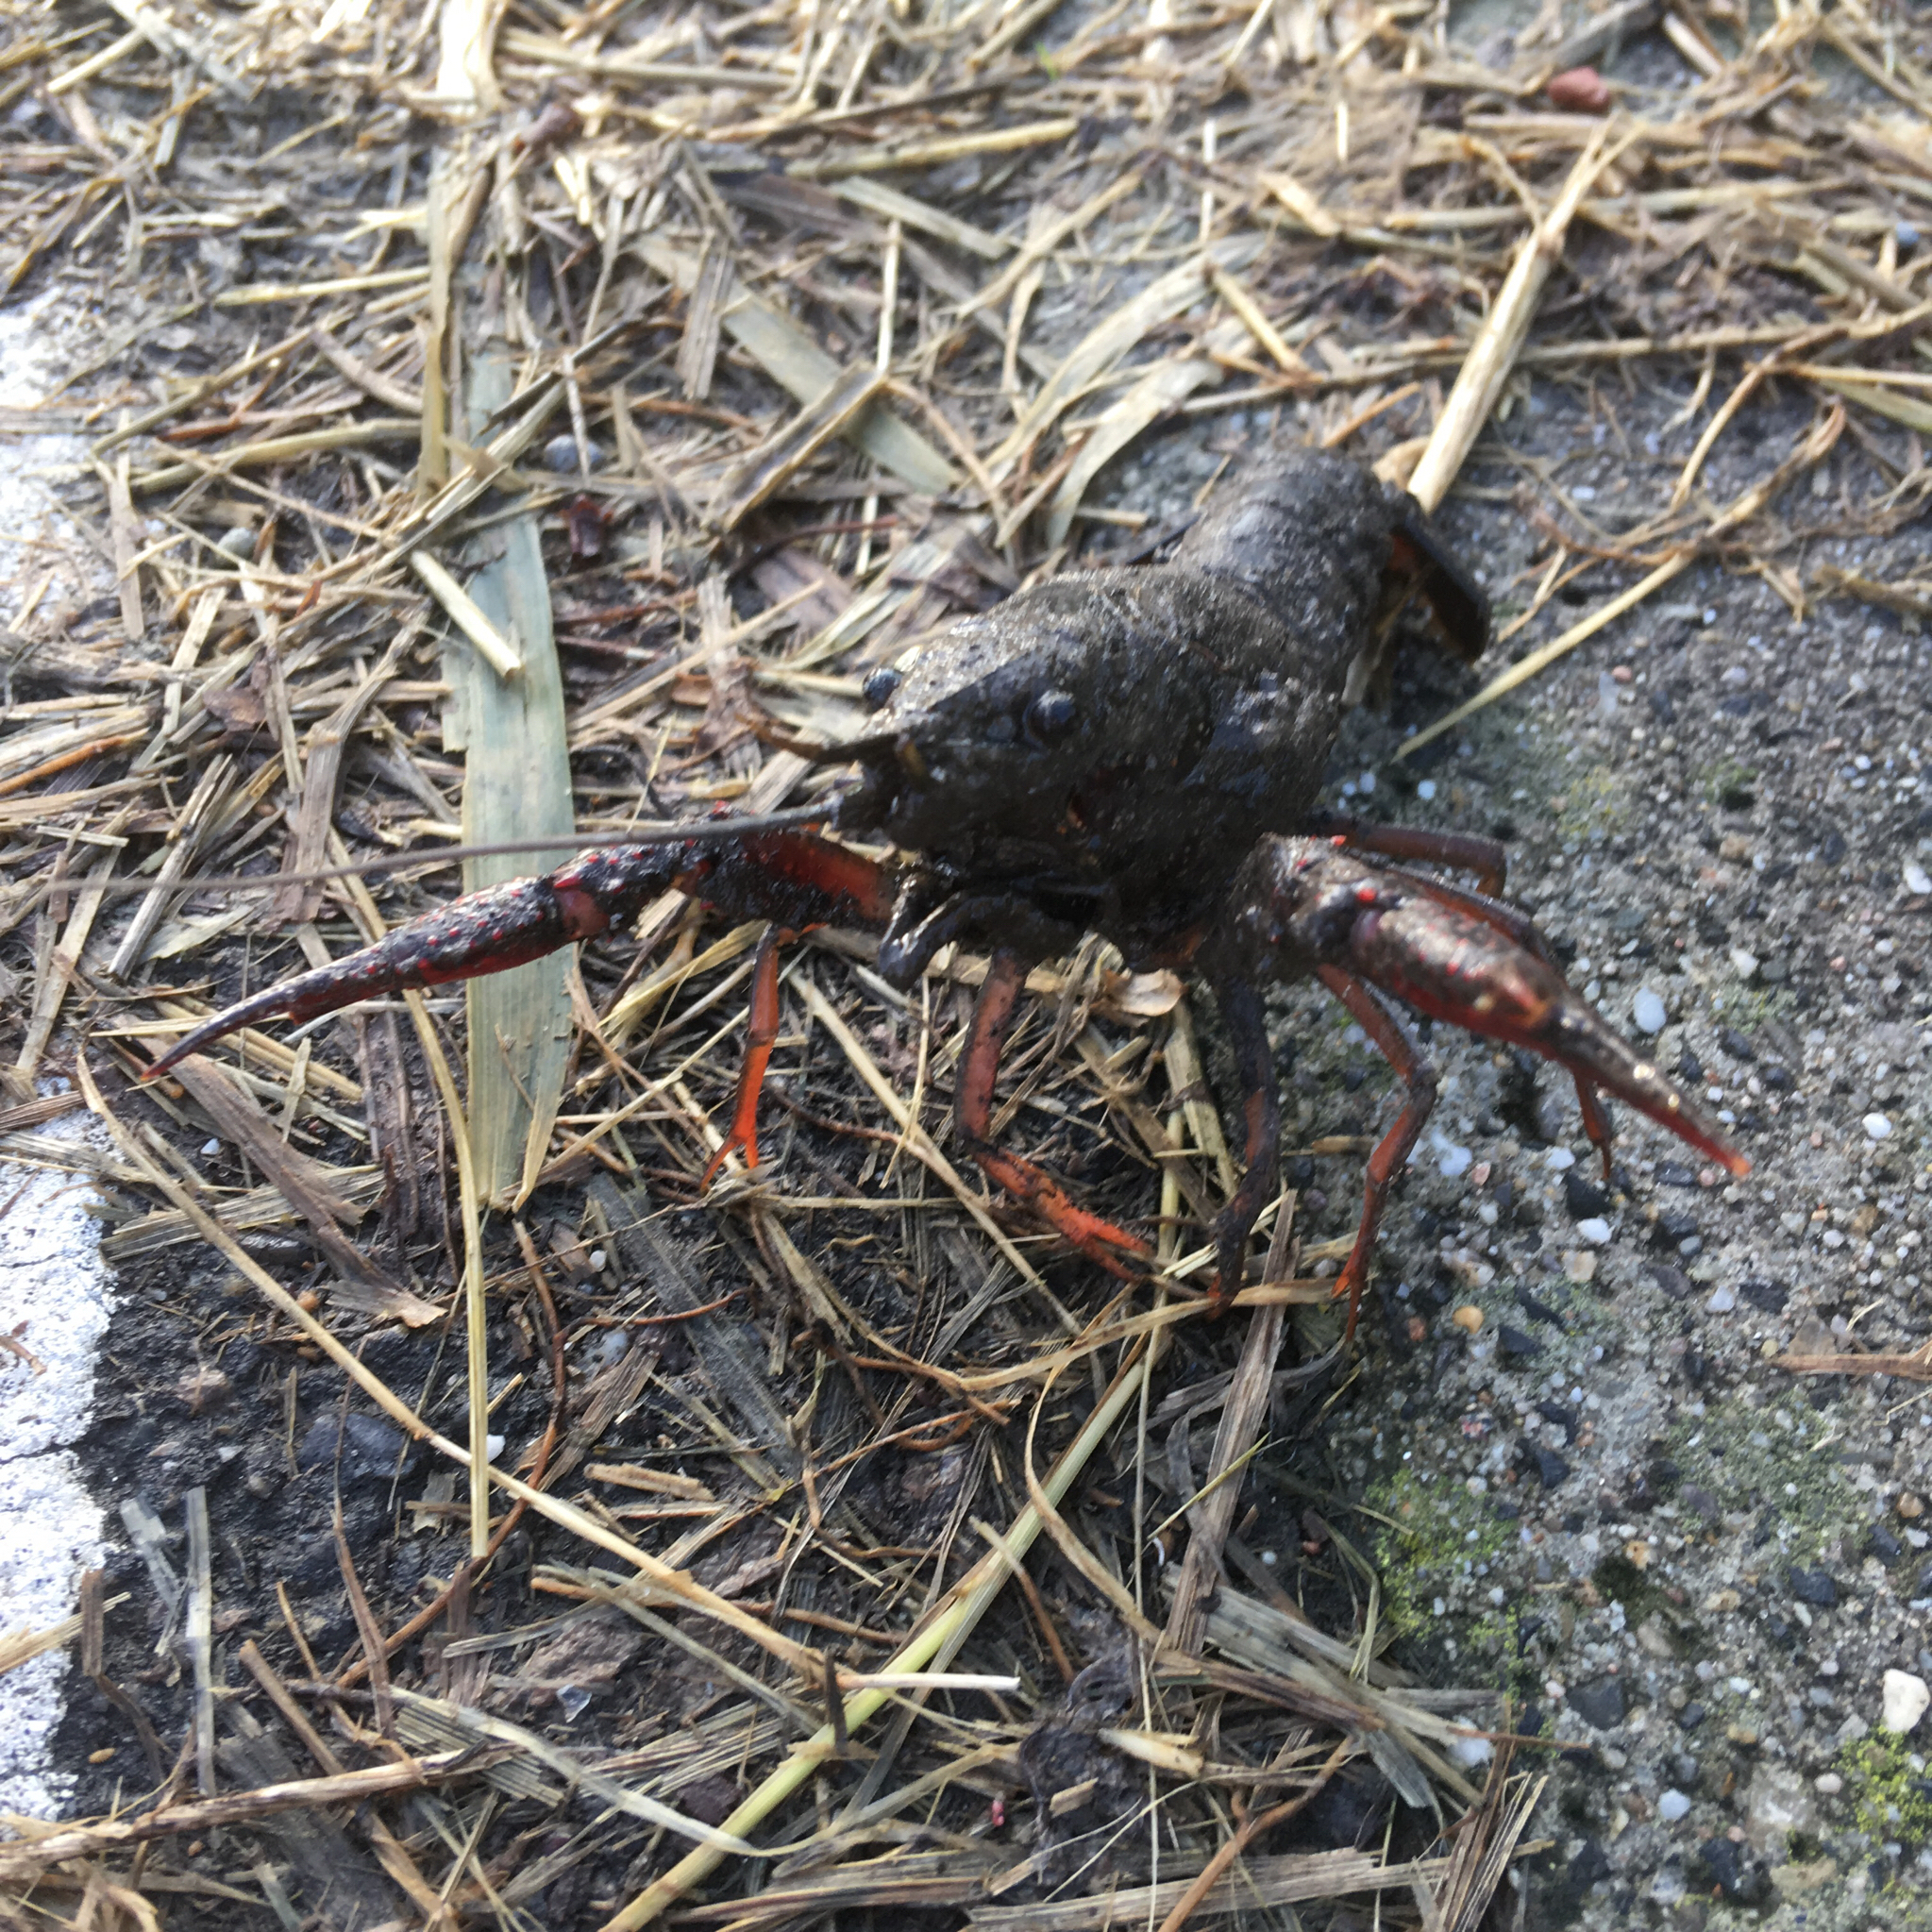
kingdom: Animalia
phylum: Arthropoda
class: Malacostraca
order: Decapoda
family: Cambaridae
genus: Procambarus
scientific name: Procambarus clarkii
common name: Red swamp crayfish
